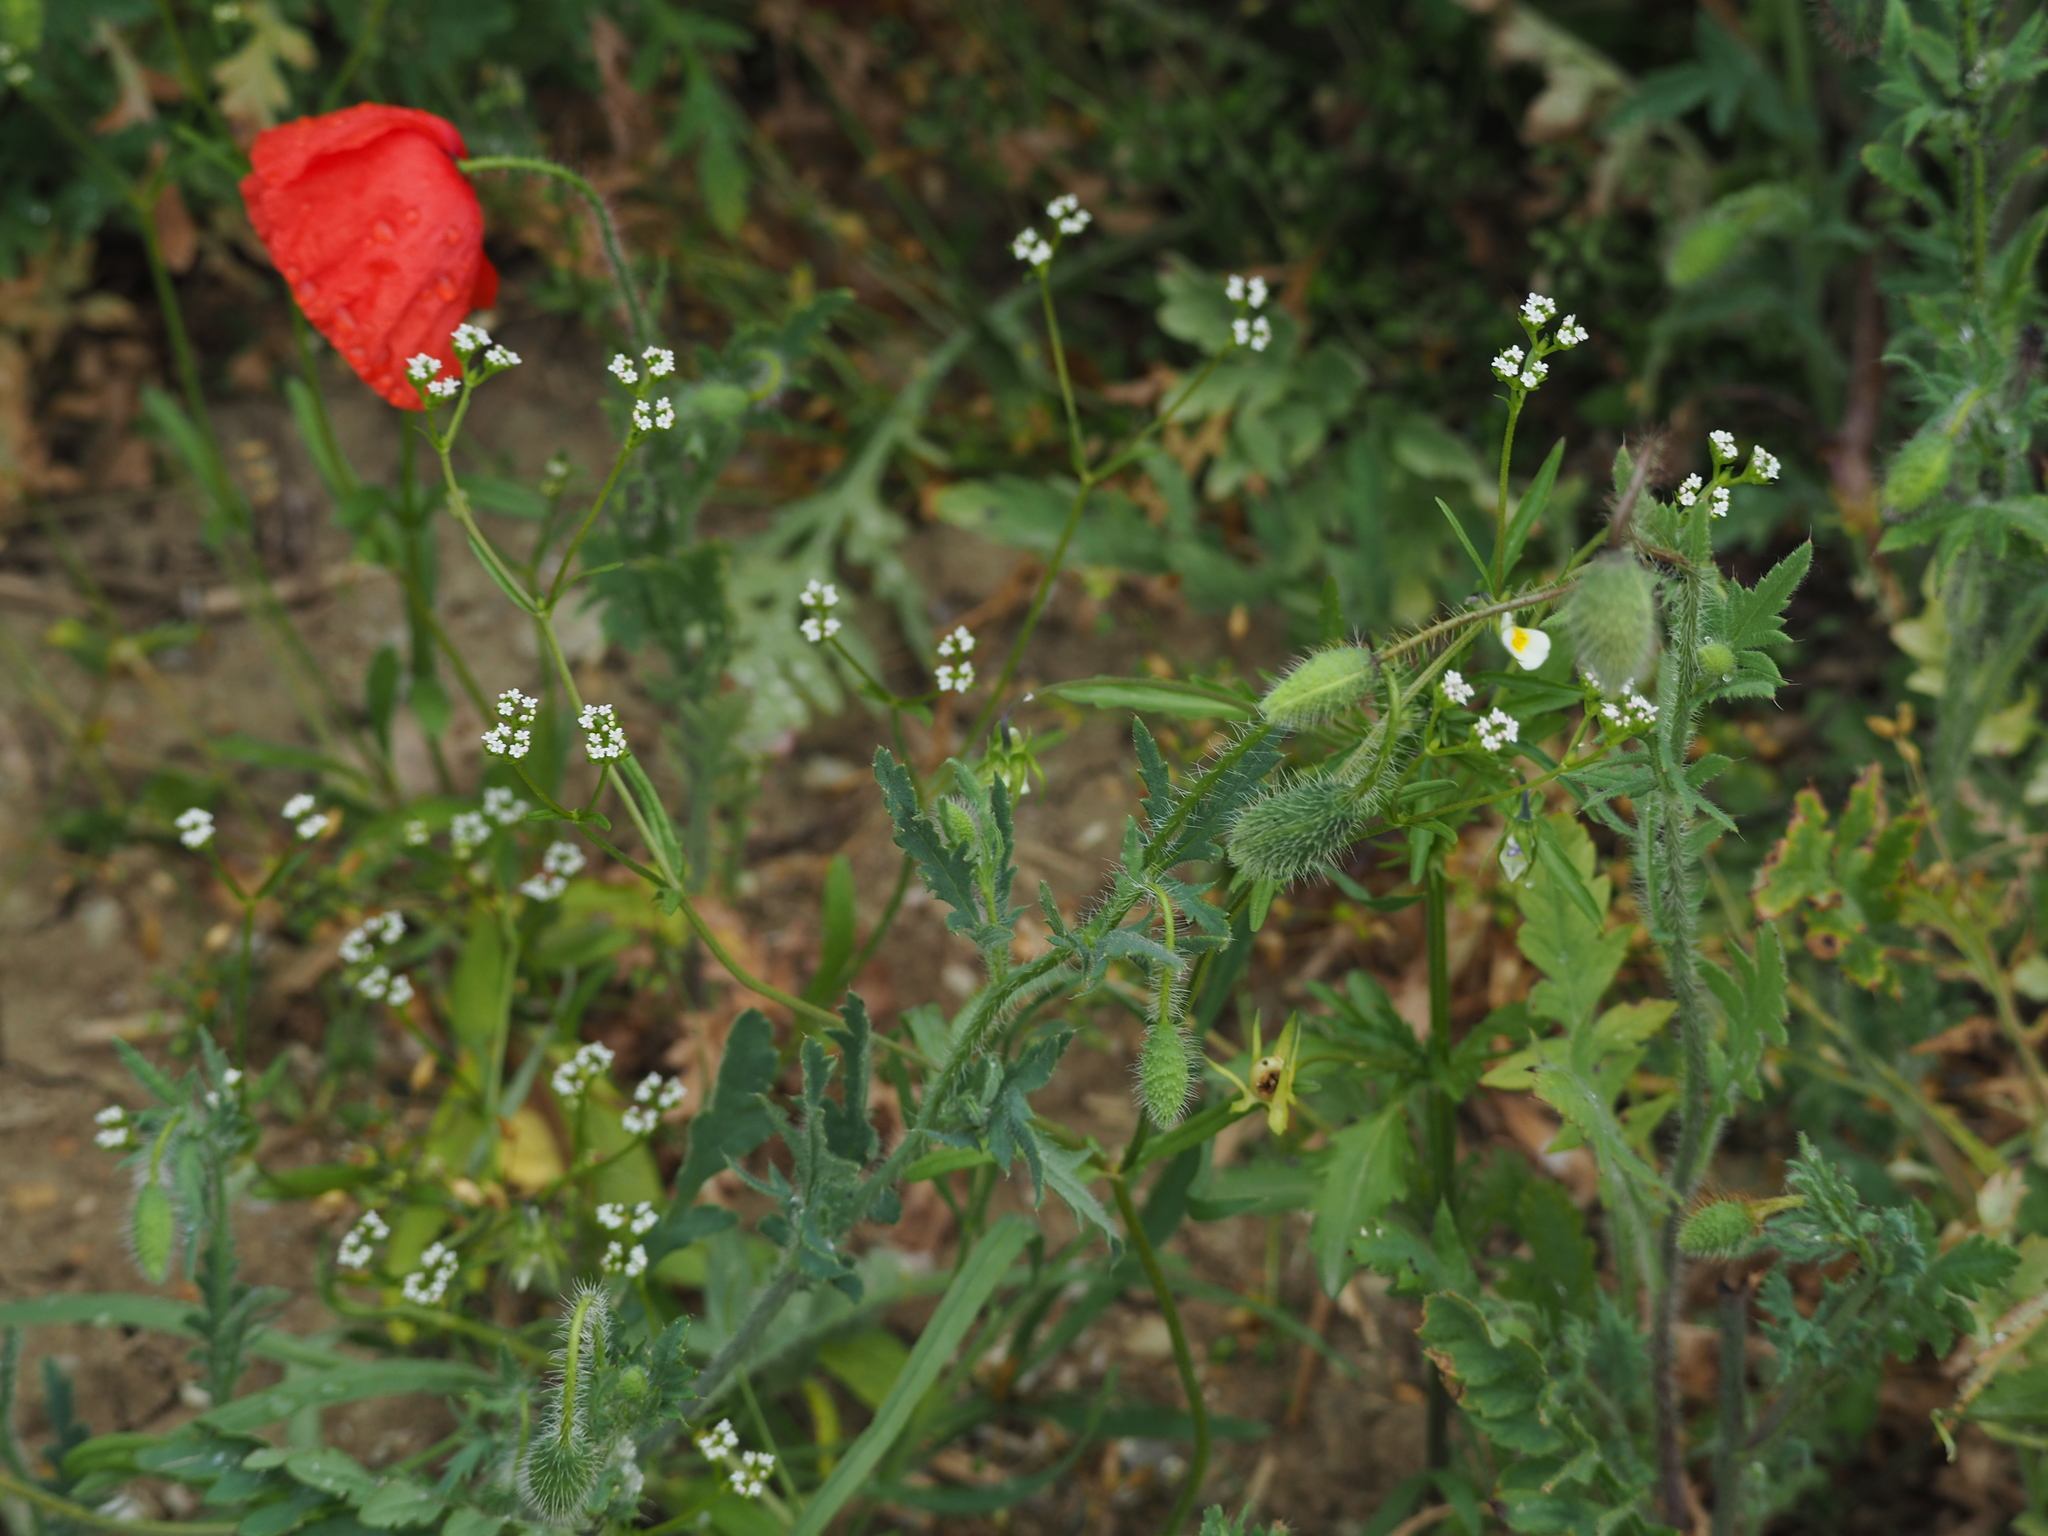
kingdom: Plantae
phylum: Tracheophyta
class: Magnoliopsida
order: Dipsacales
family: Caprifoliaceae
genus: Valerianella
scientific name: Valerianella dentata
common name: Narrow-fruited cornsalad
